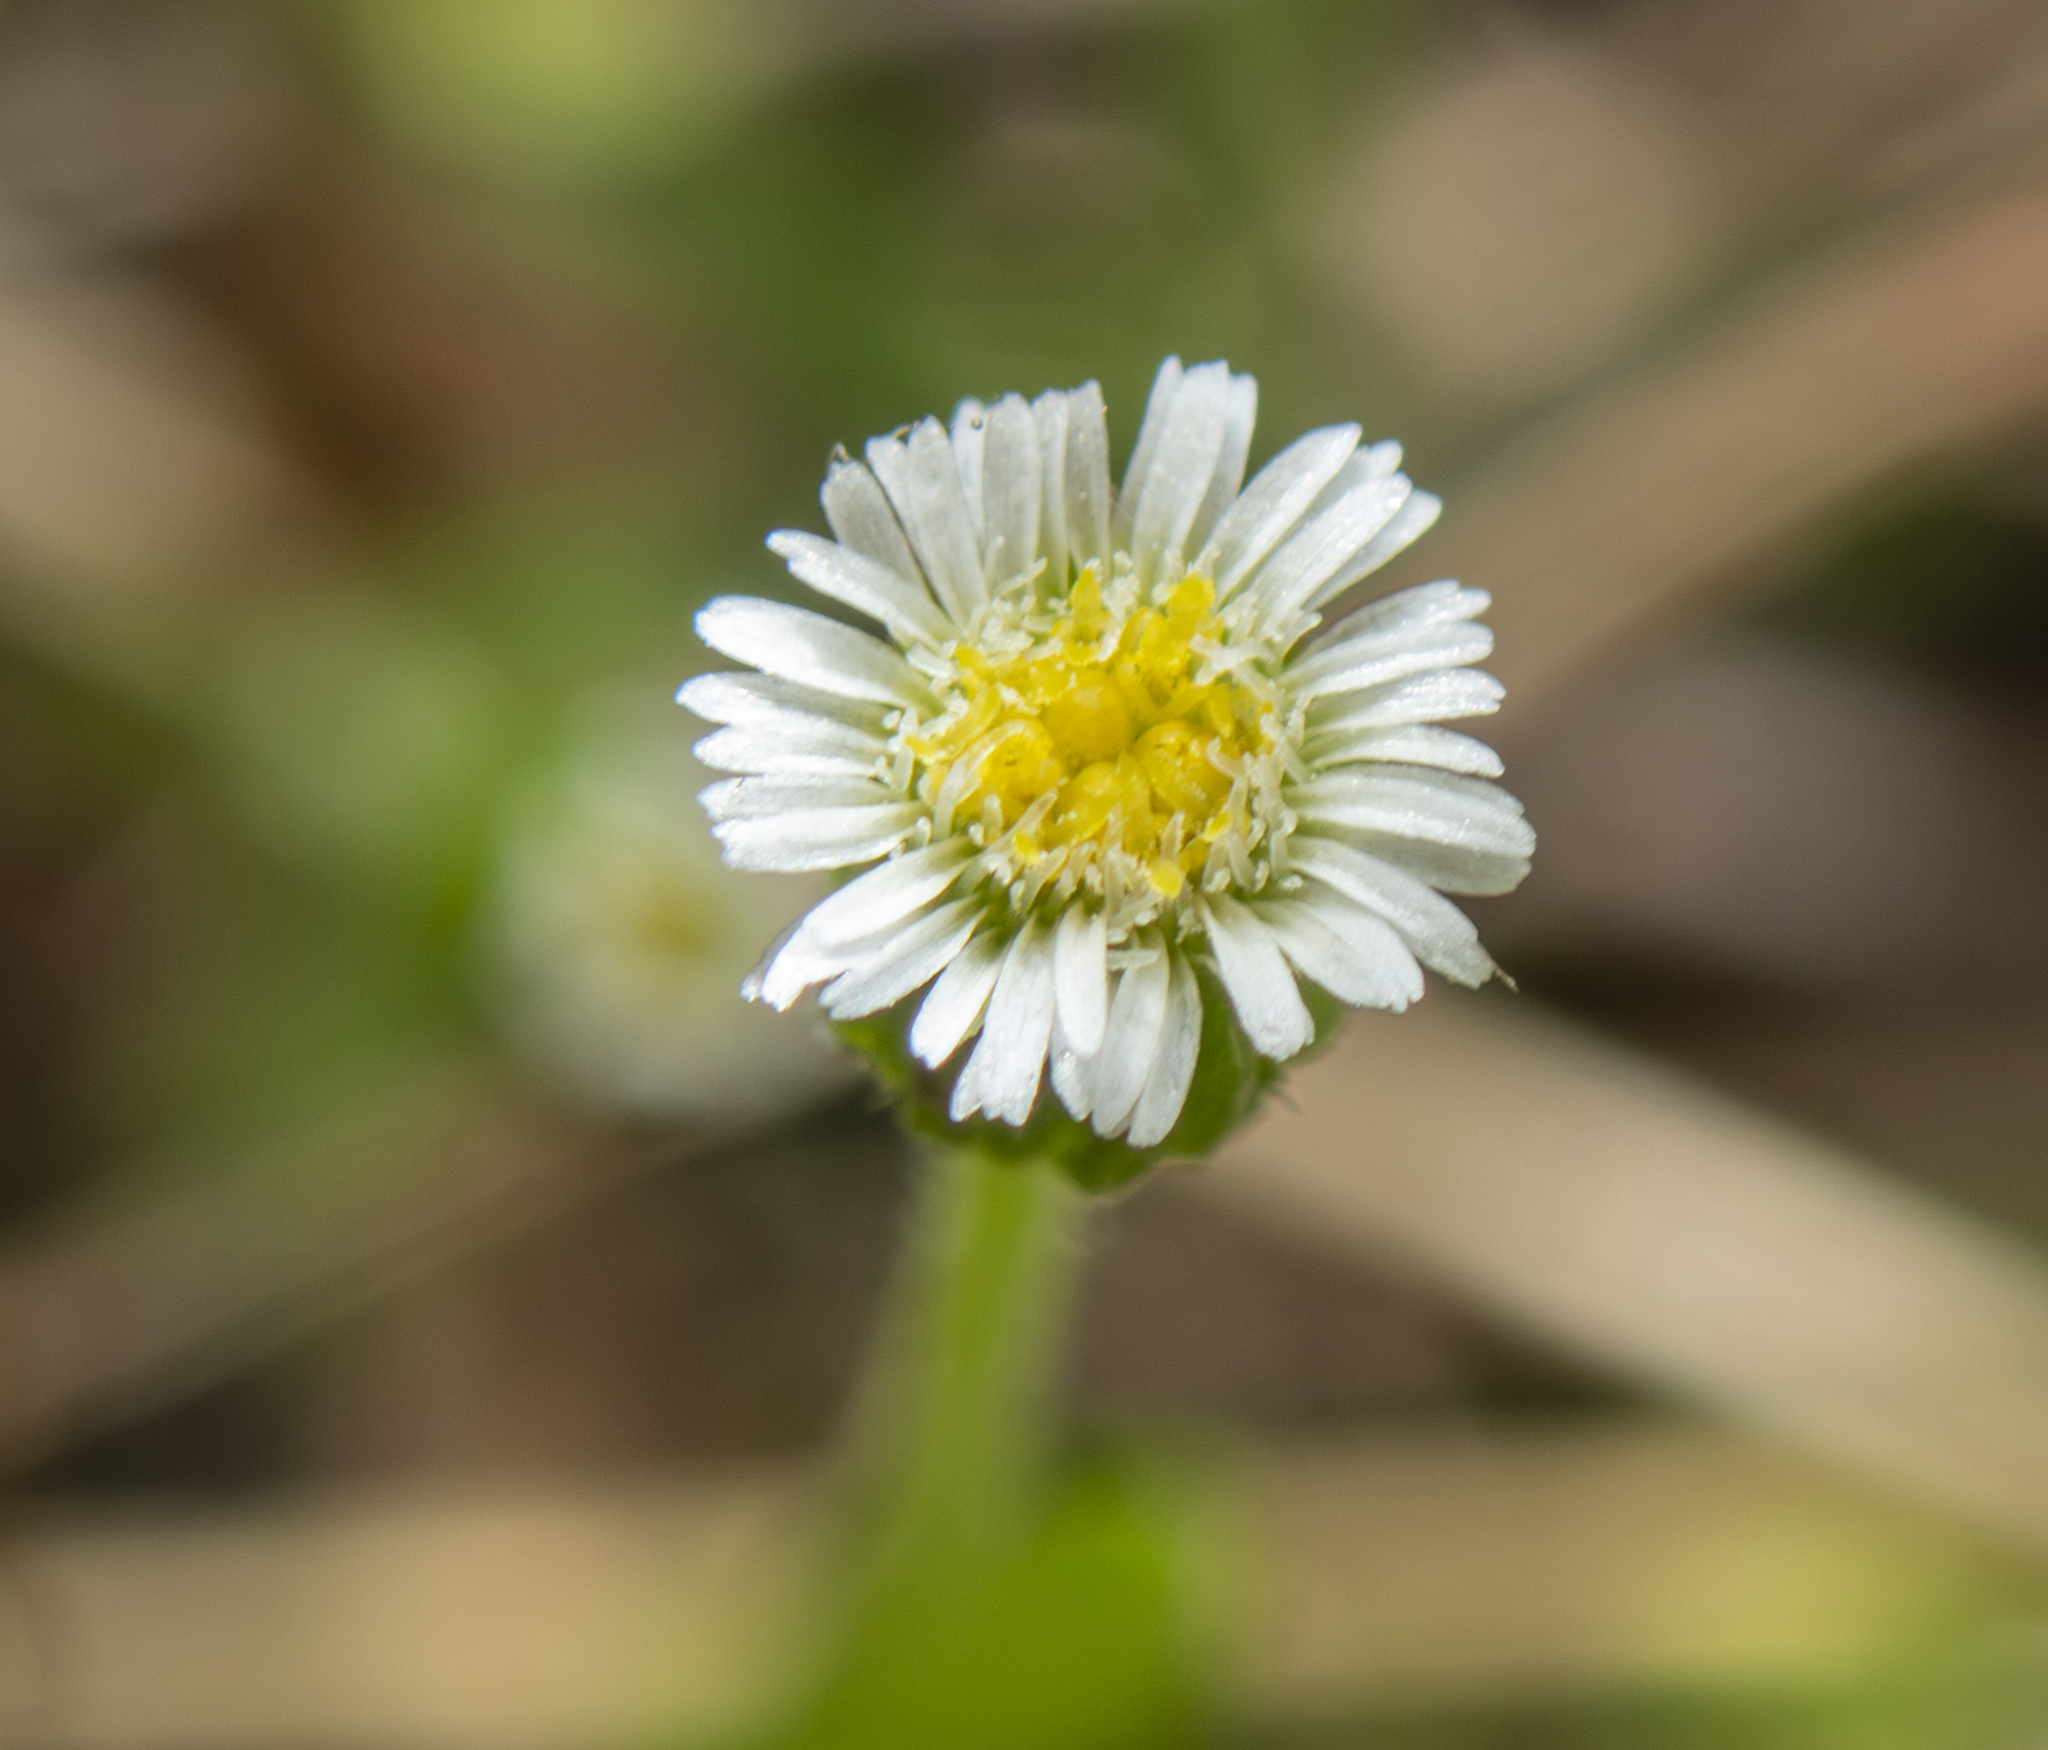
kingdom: Plantae
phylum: Tracheophyta
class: Magnoliopsida
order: Asterales
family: Asteraceae
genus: Erigeron
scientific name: Erigeron bellioides
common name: Bellorita
